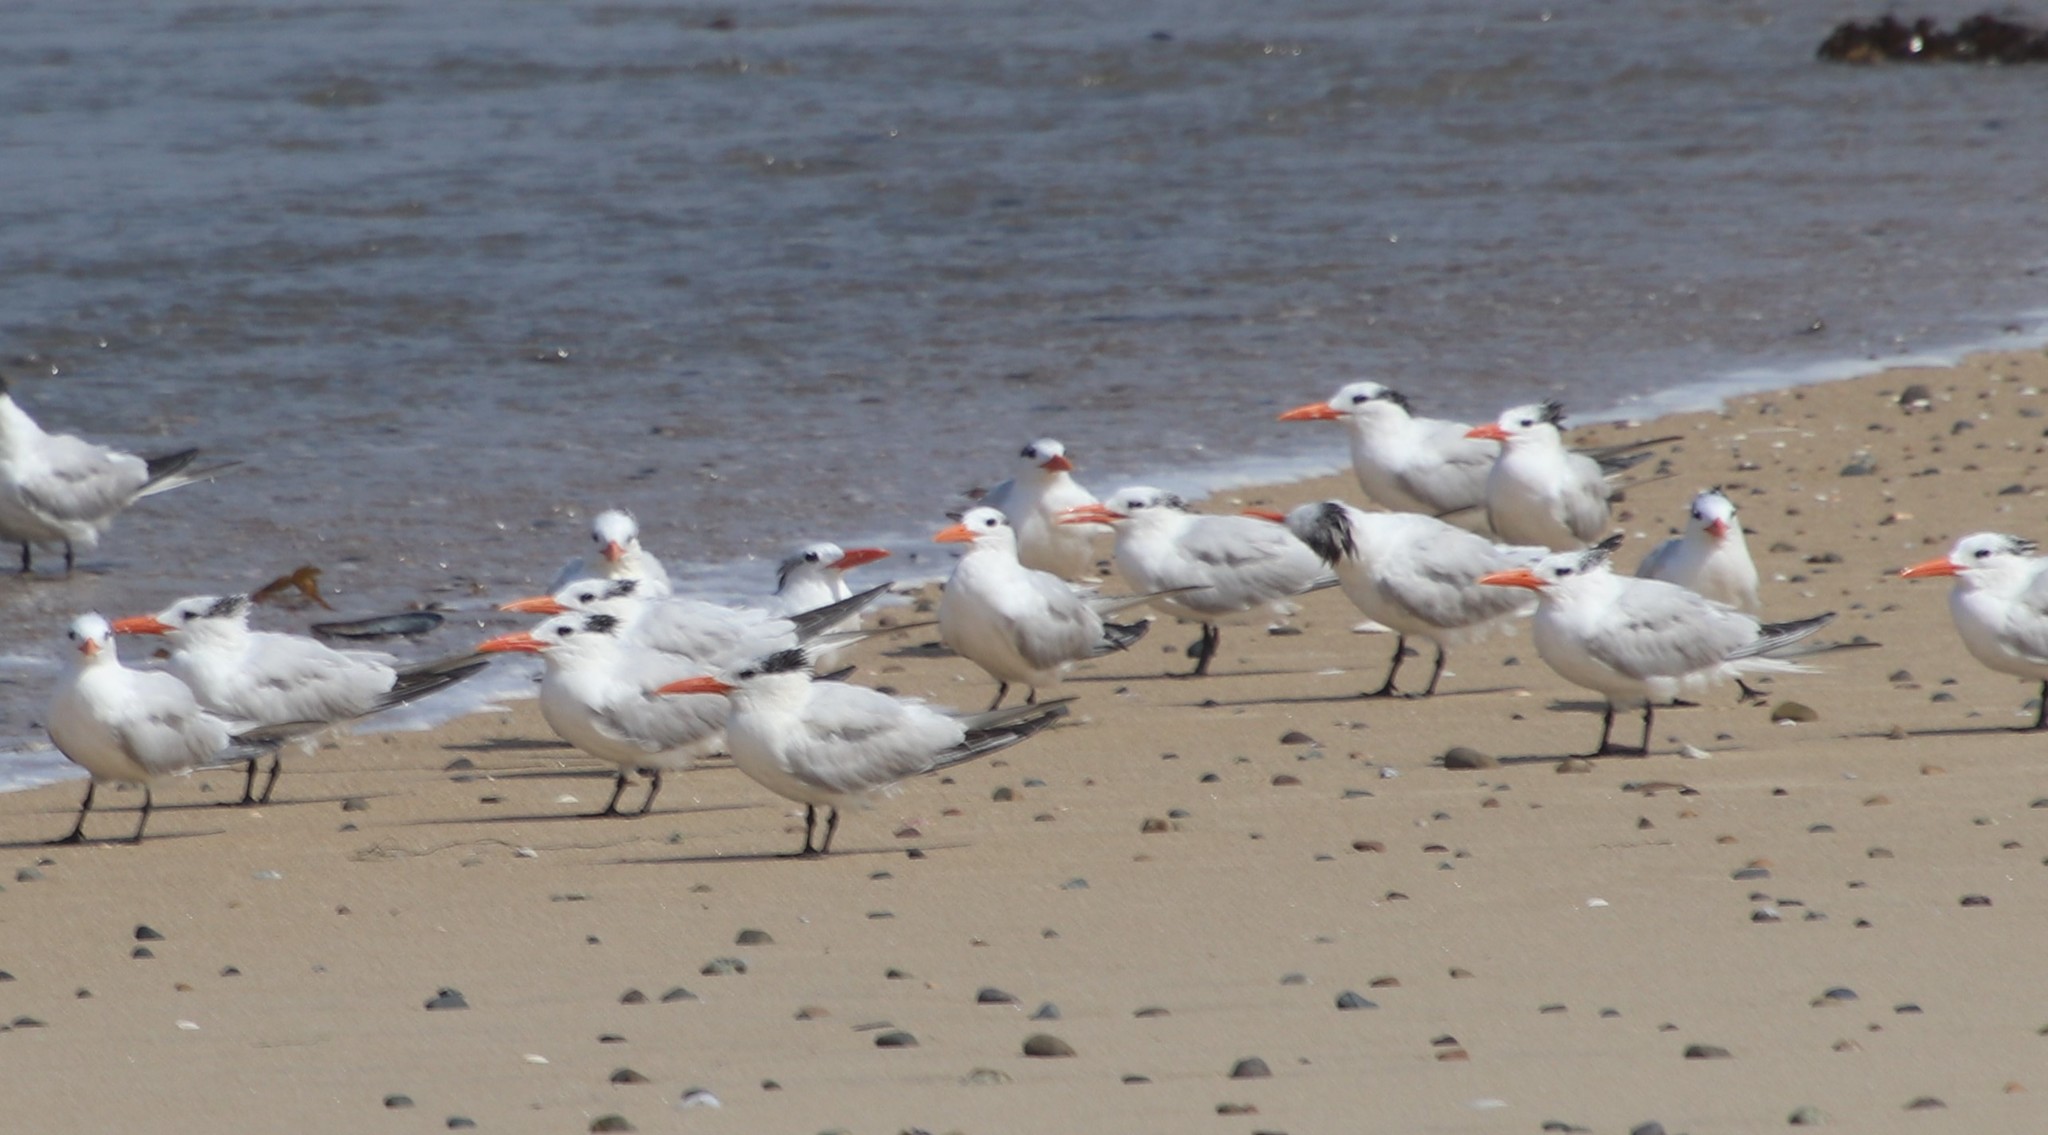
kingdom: Animalia
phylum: Chordata
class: Aves
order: Charadriiformes
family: Laridae
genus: Thalasseus
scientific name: Thalasseus maximus
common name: Royal tern
